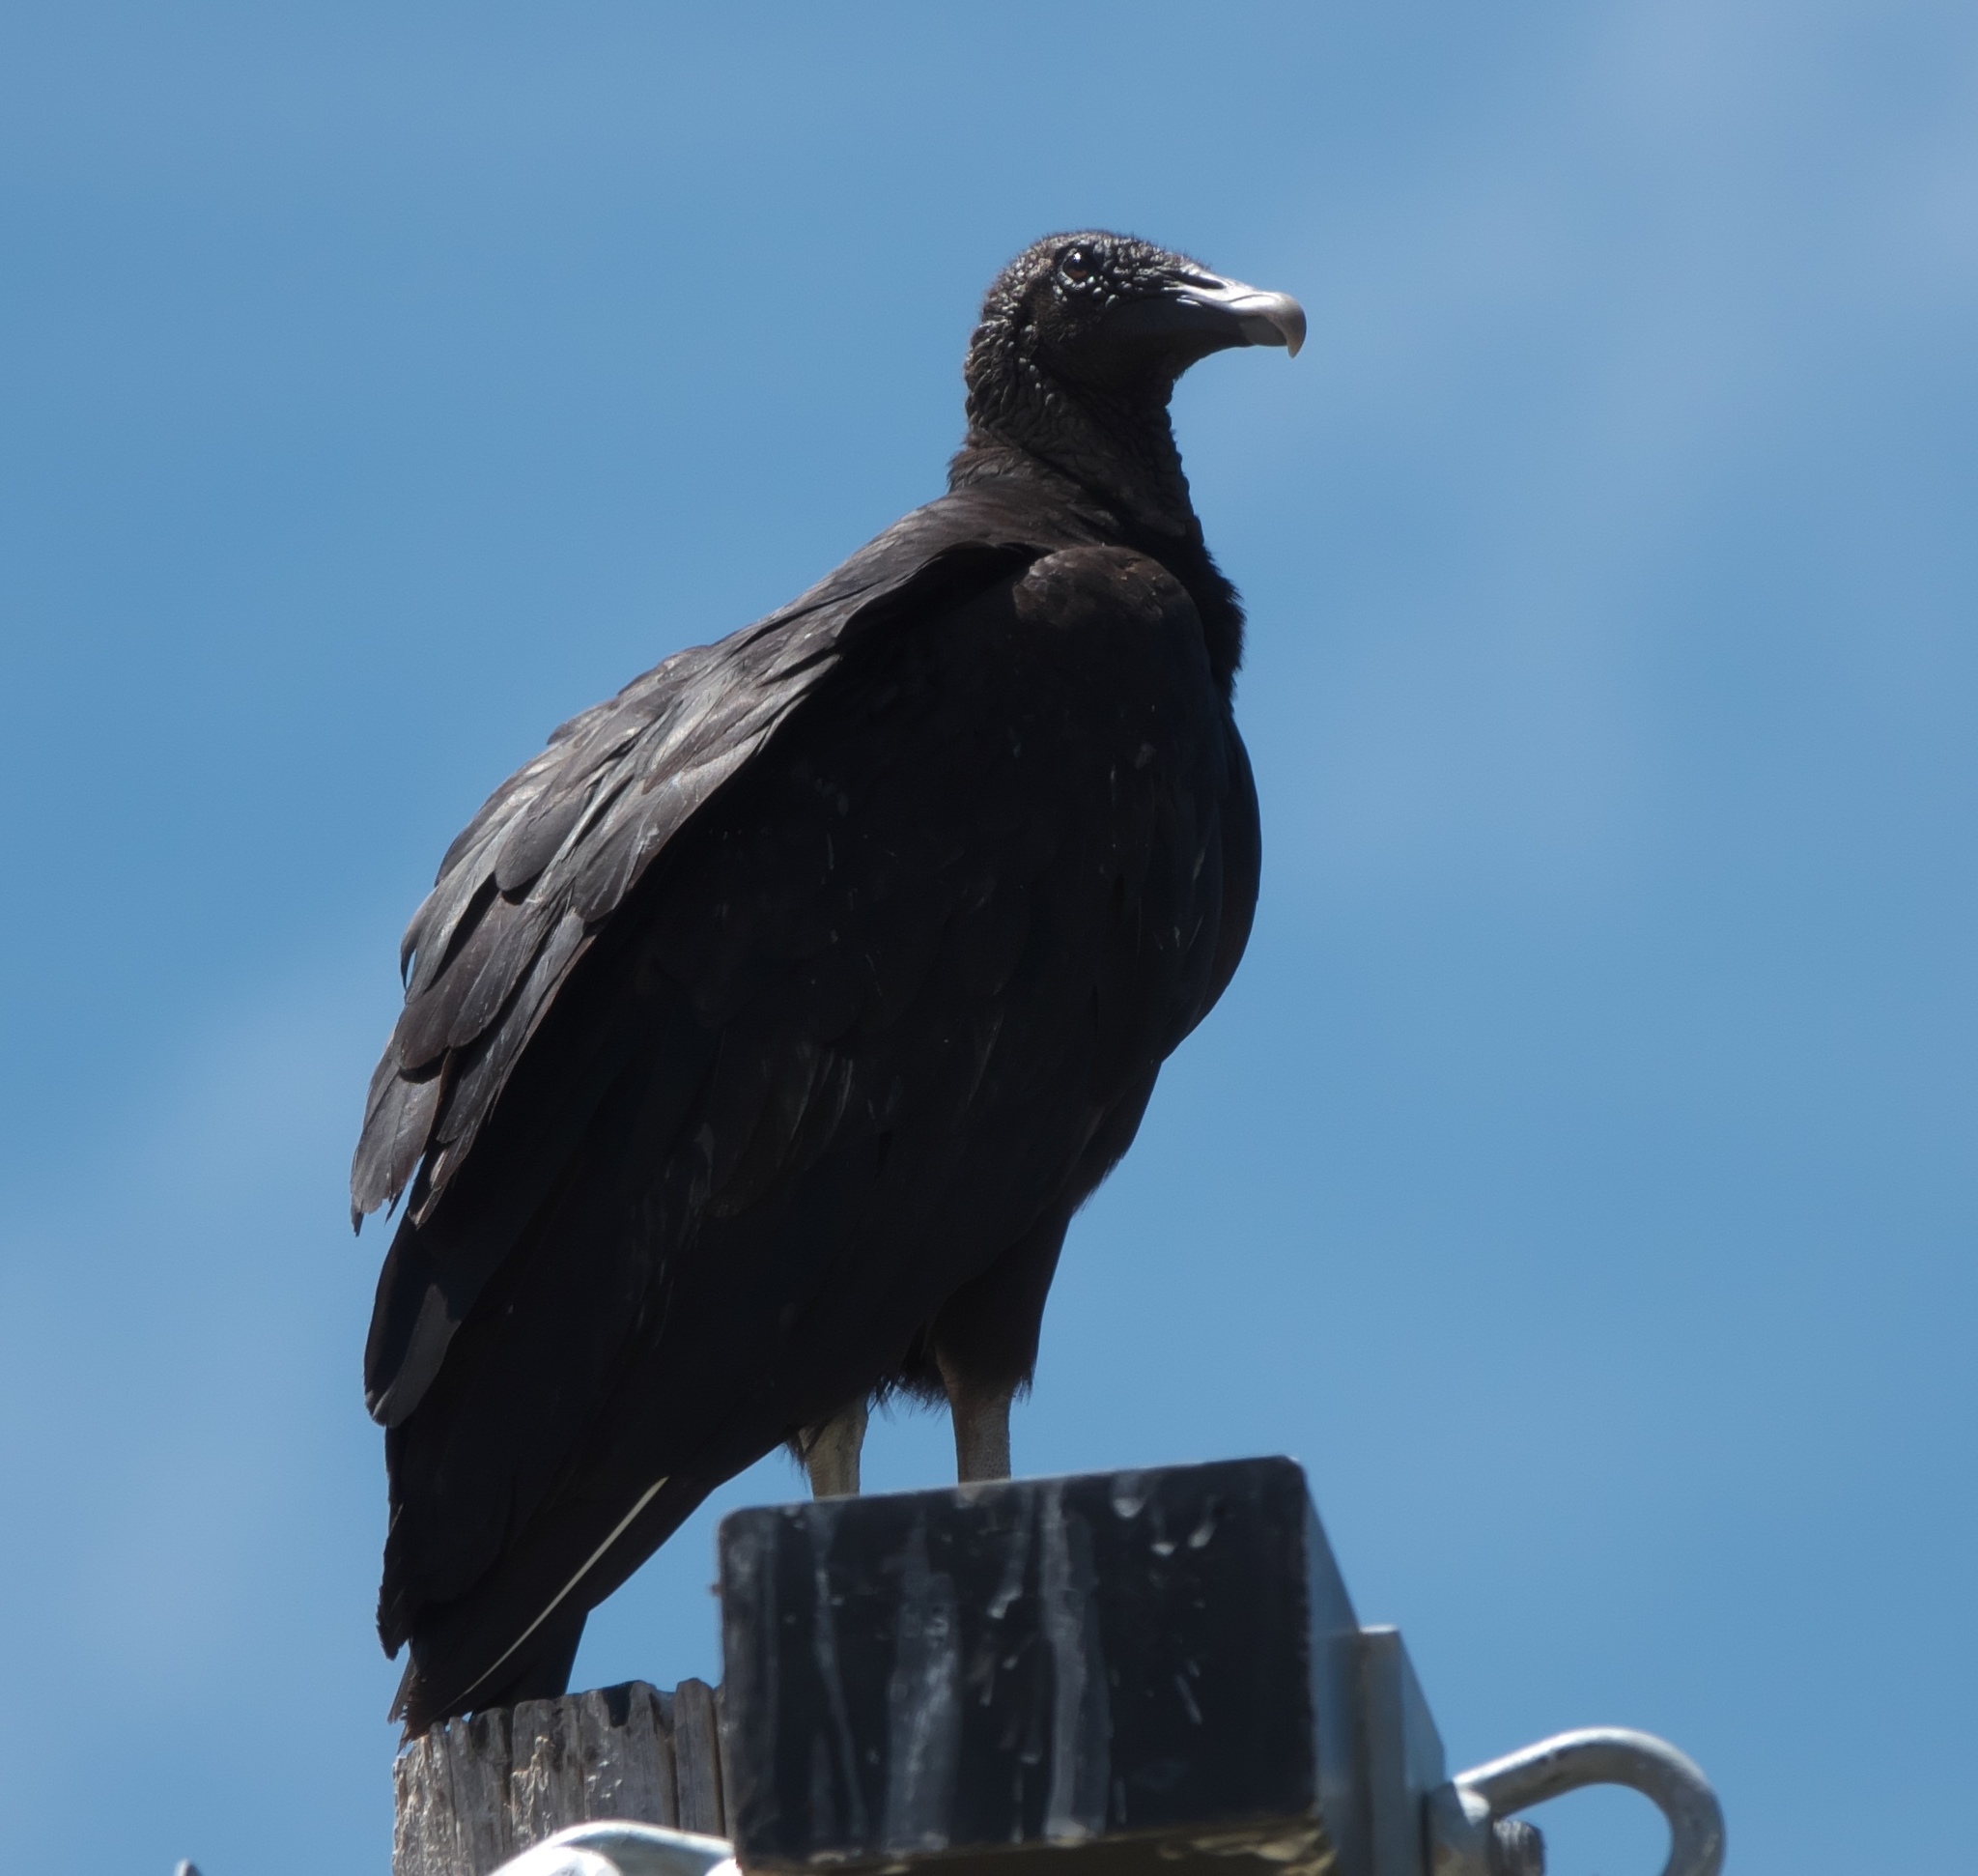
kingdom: Animalia
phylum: Chordata
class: Aves
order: Accipitriformes
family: Cathartidae
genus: Coragyps
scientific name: Coragyps atratus
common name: Black vulture
